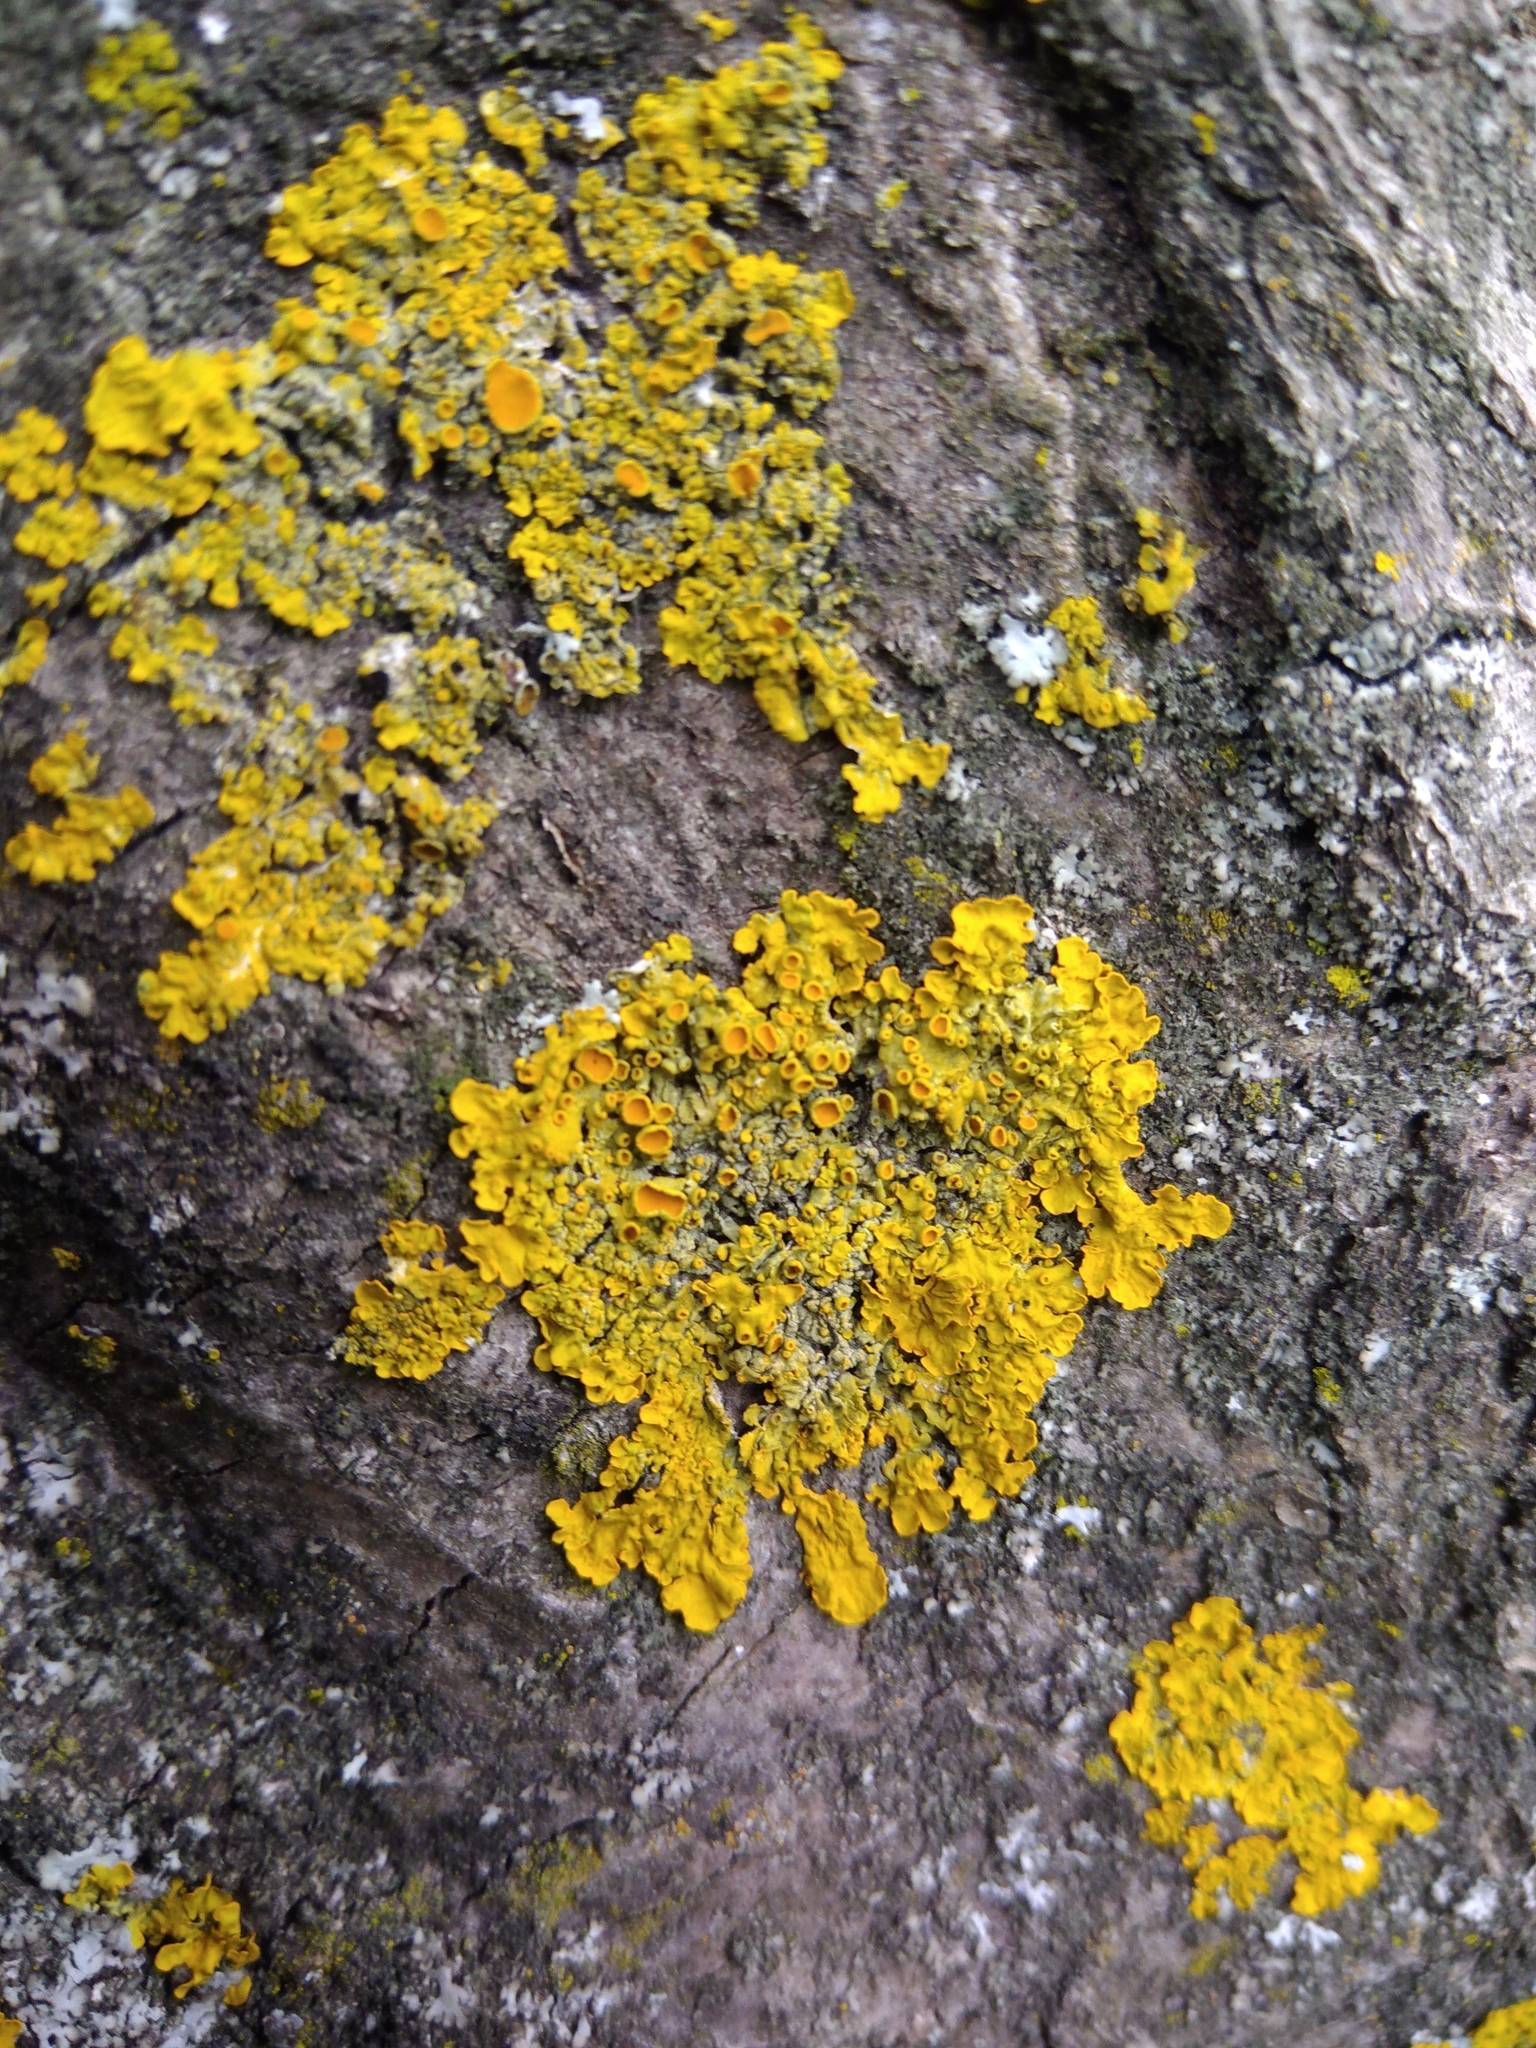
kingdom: Fungi
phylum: Ascomycota
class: Lecanoromycetes
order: Teloschistales
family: Teloschistaceae
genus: Xanthoria
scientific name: Xanthoria parietina
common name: Common orange lichen
